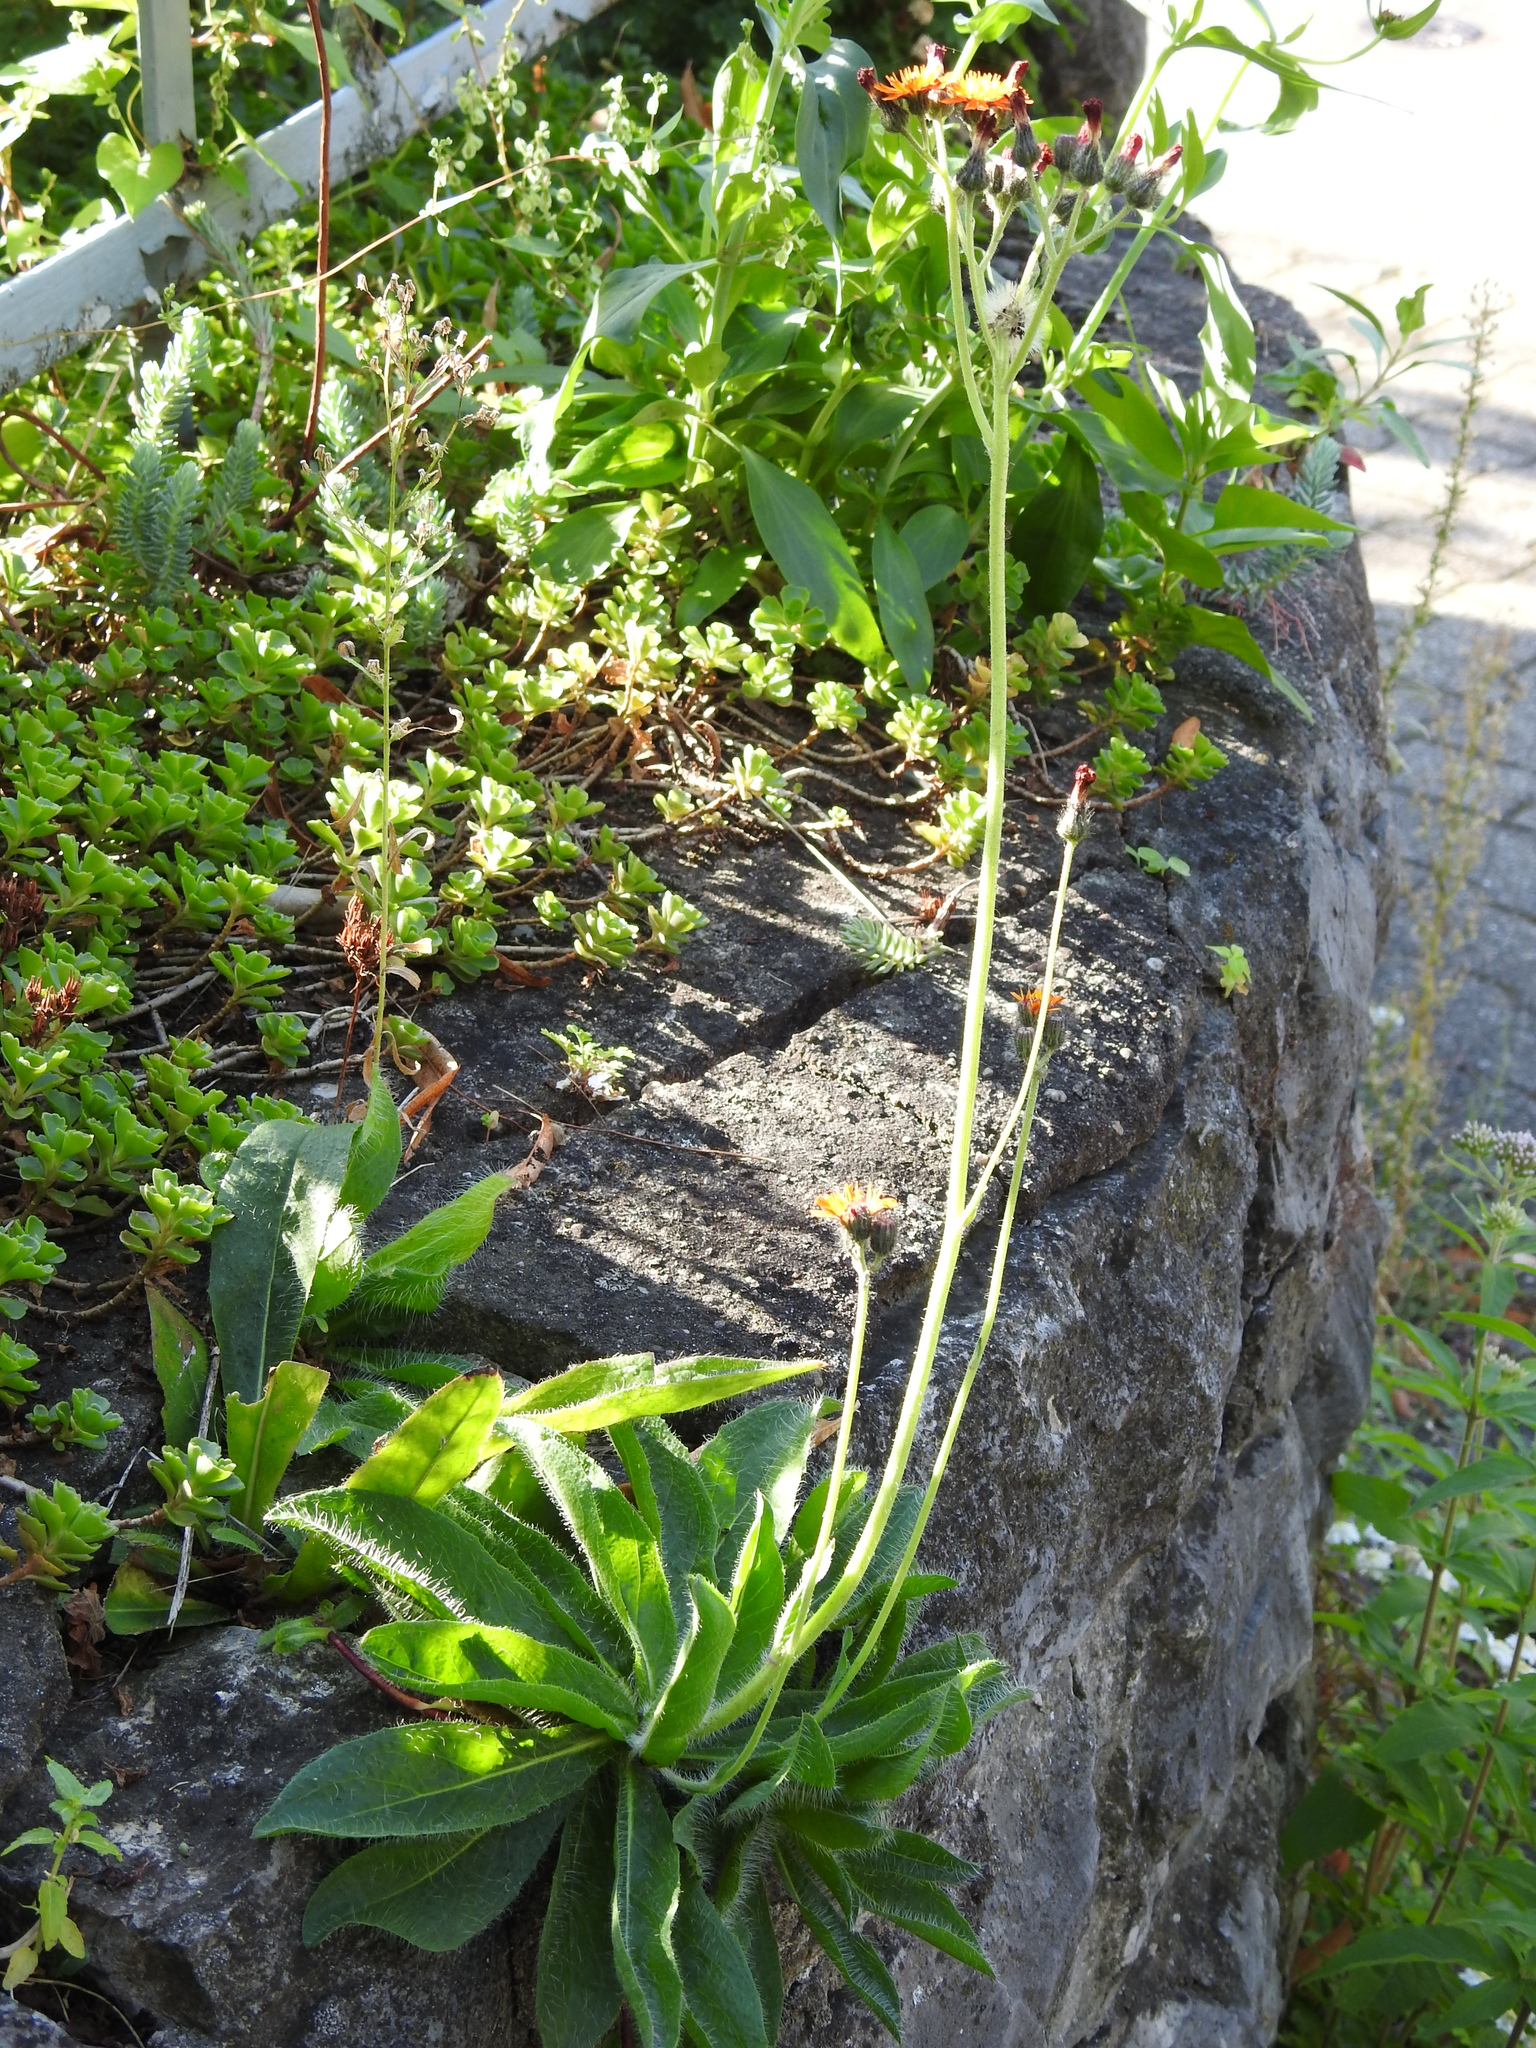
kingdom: Plantae
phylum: Tracheophyta
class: Magnoliopsida
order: Asterales
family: Asteraceae
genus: Pilosella
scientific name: Pilosella aurantiaca
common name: Fox-and-cubs
